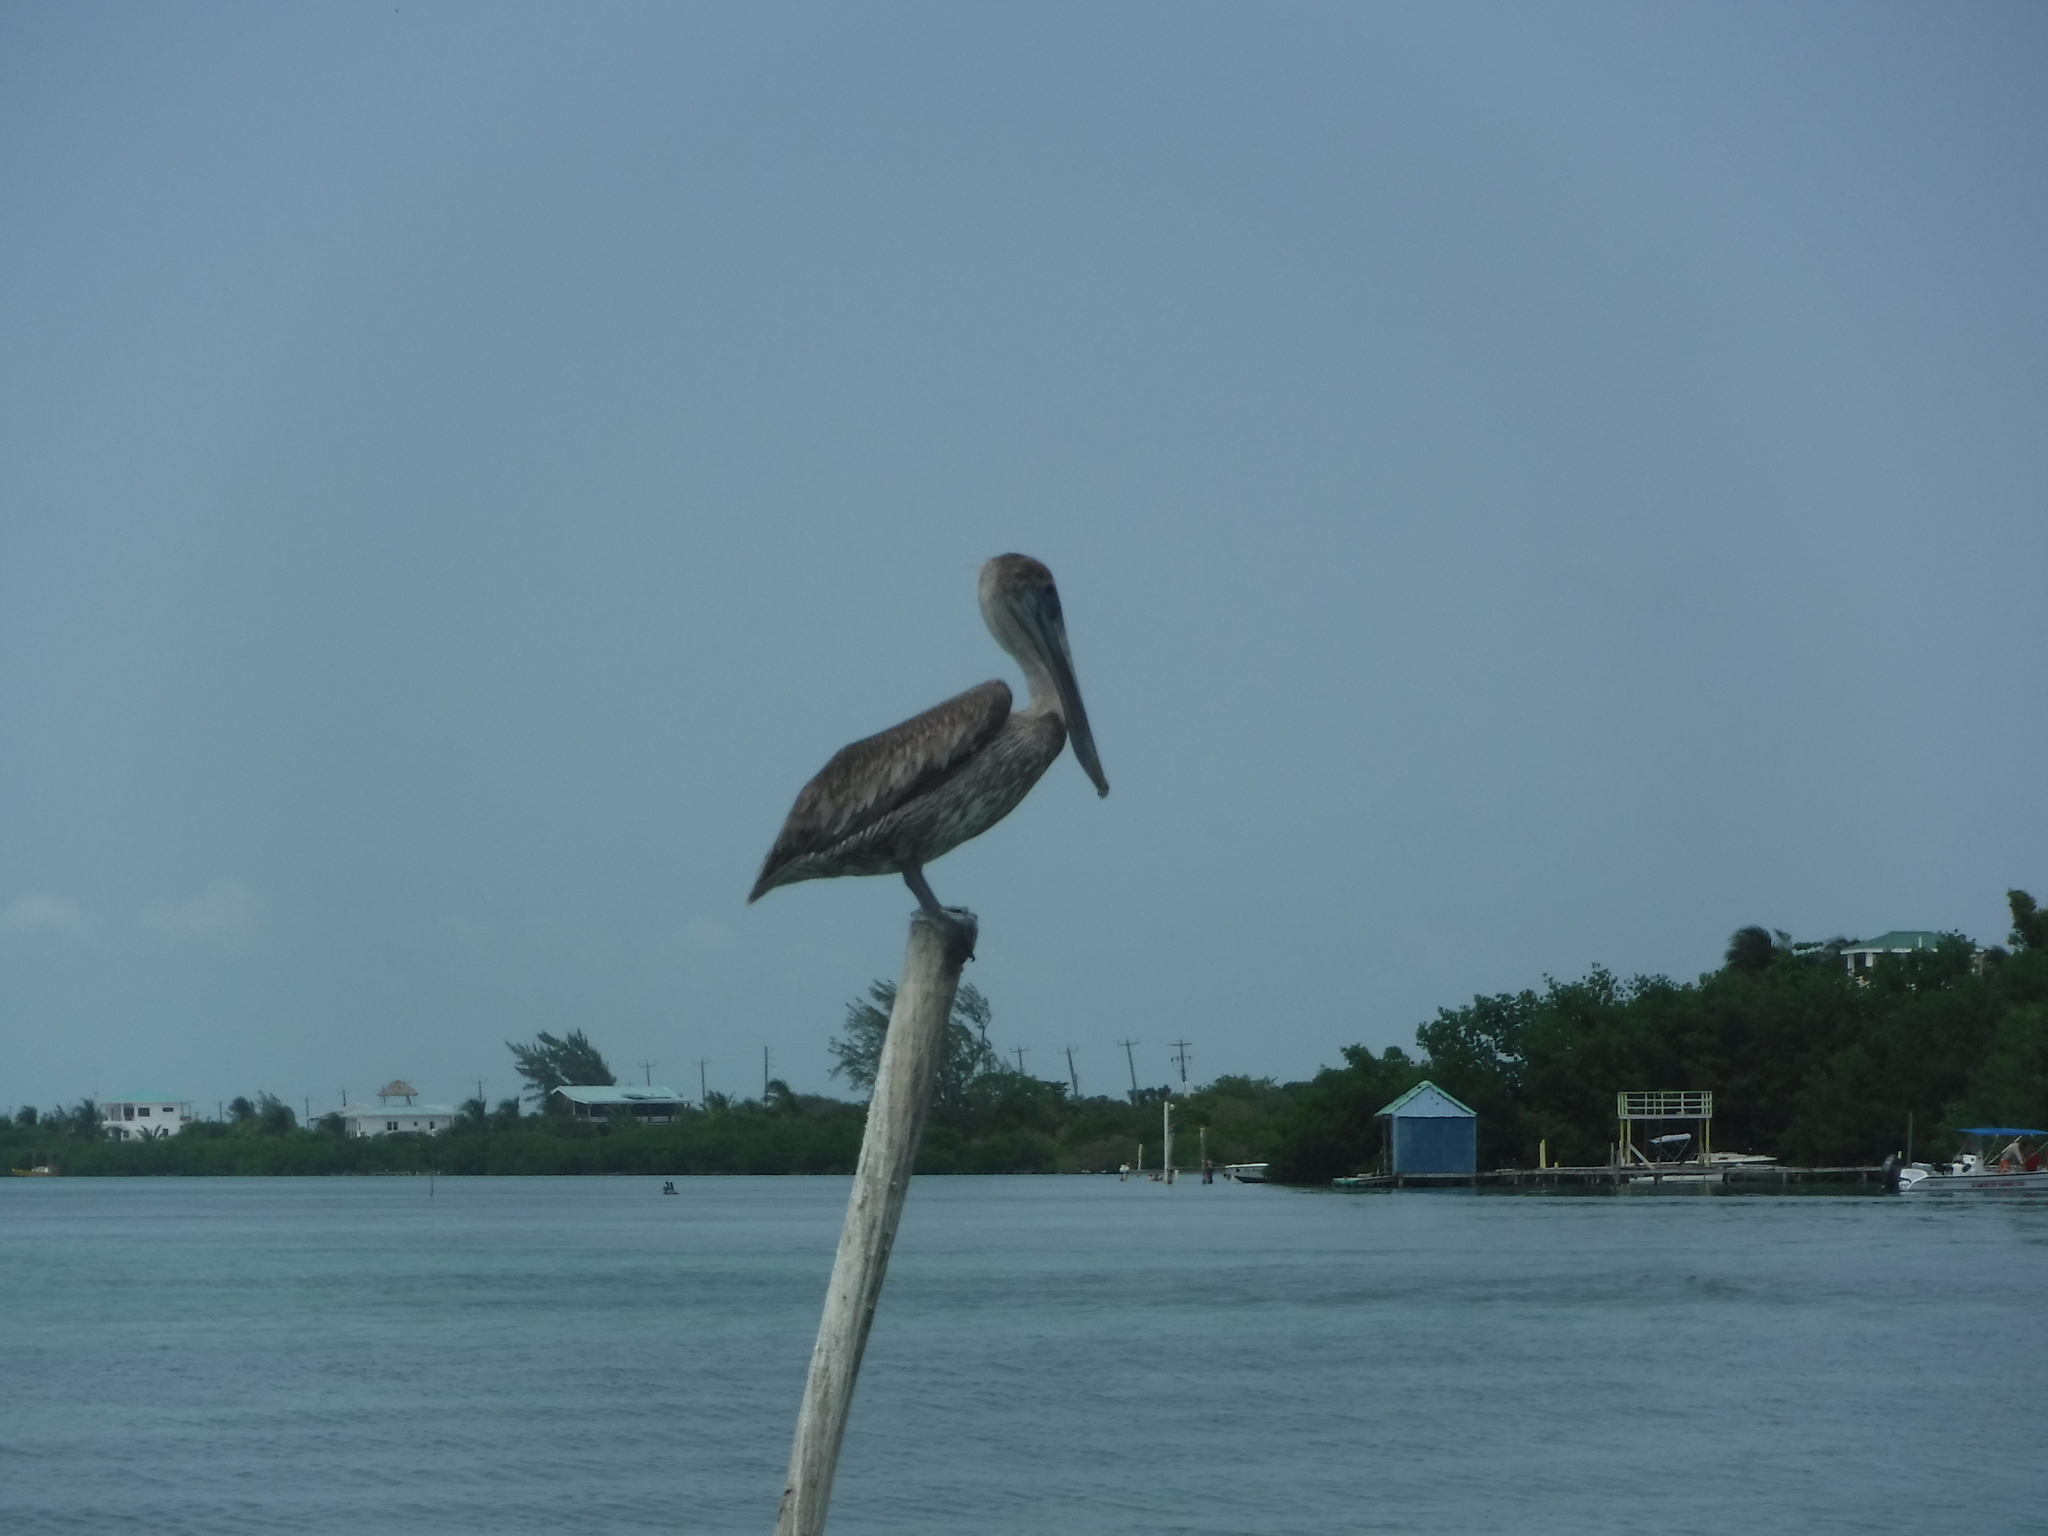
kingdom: Animalia
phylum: Chordata
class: Aves
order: Pelecaniformes
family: Pelecanidae
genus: Pelecanus
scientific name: Pelecanus occidentalis
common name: Brown pelican
